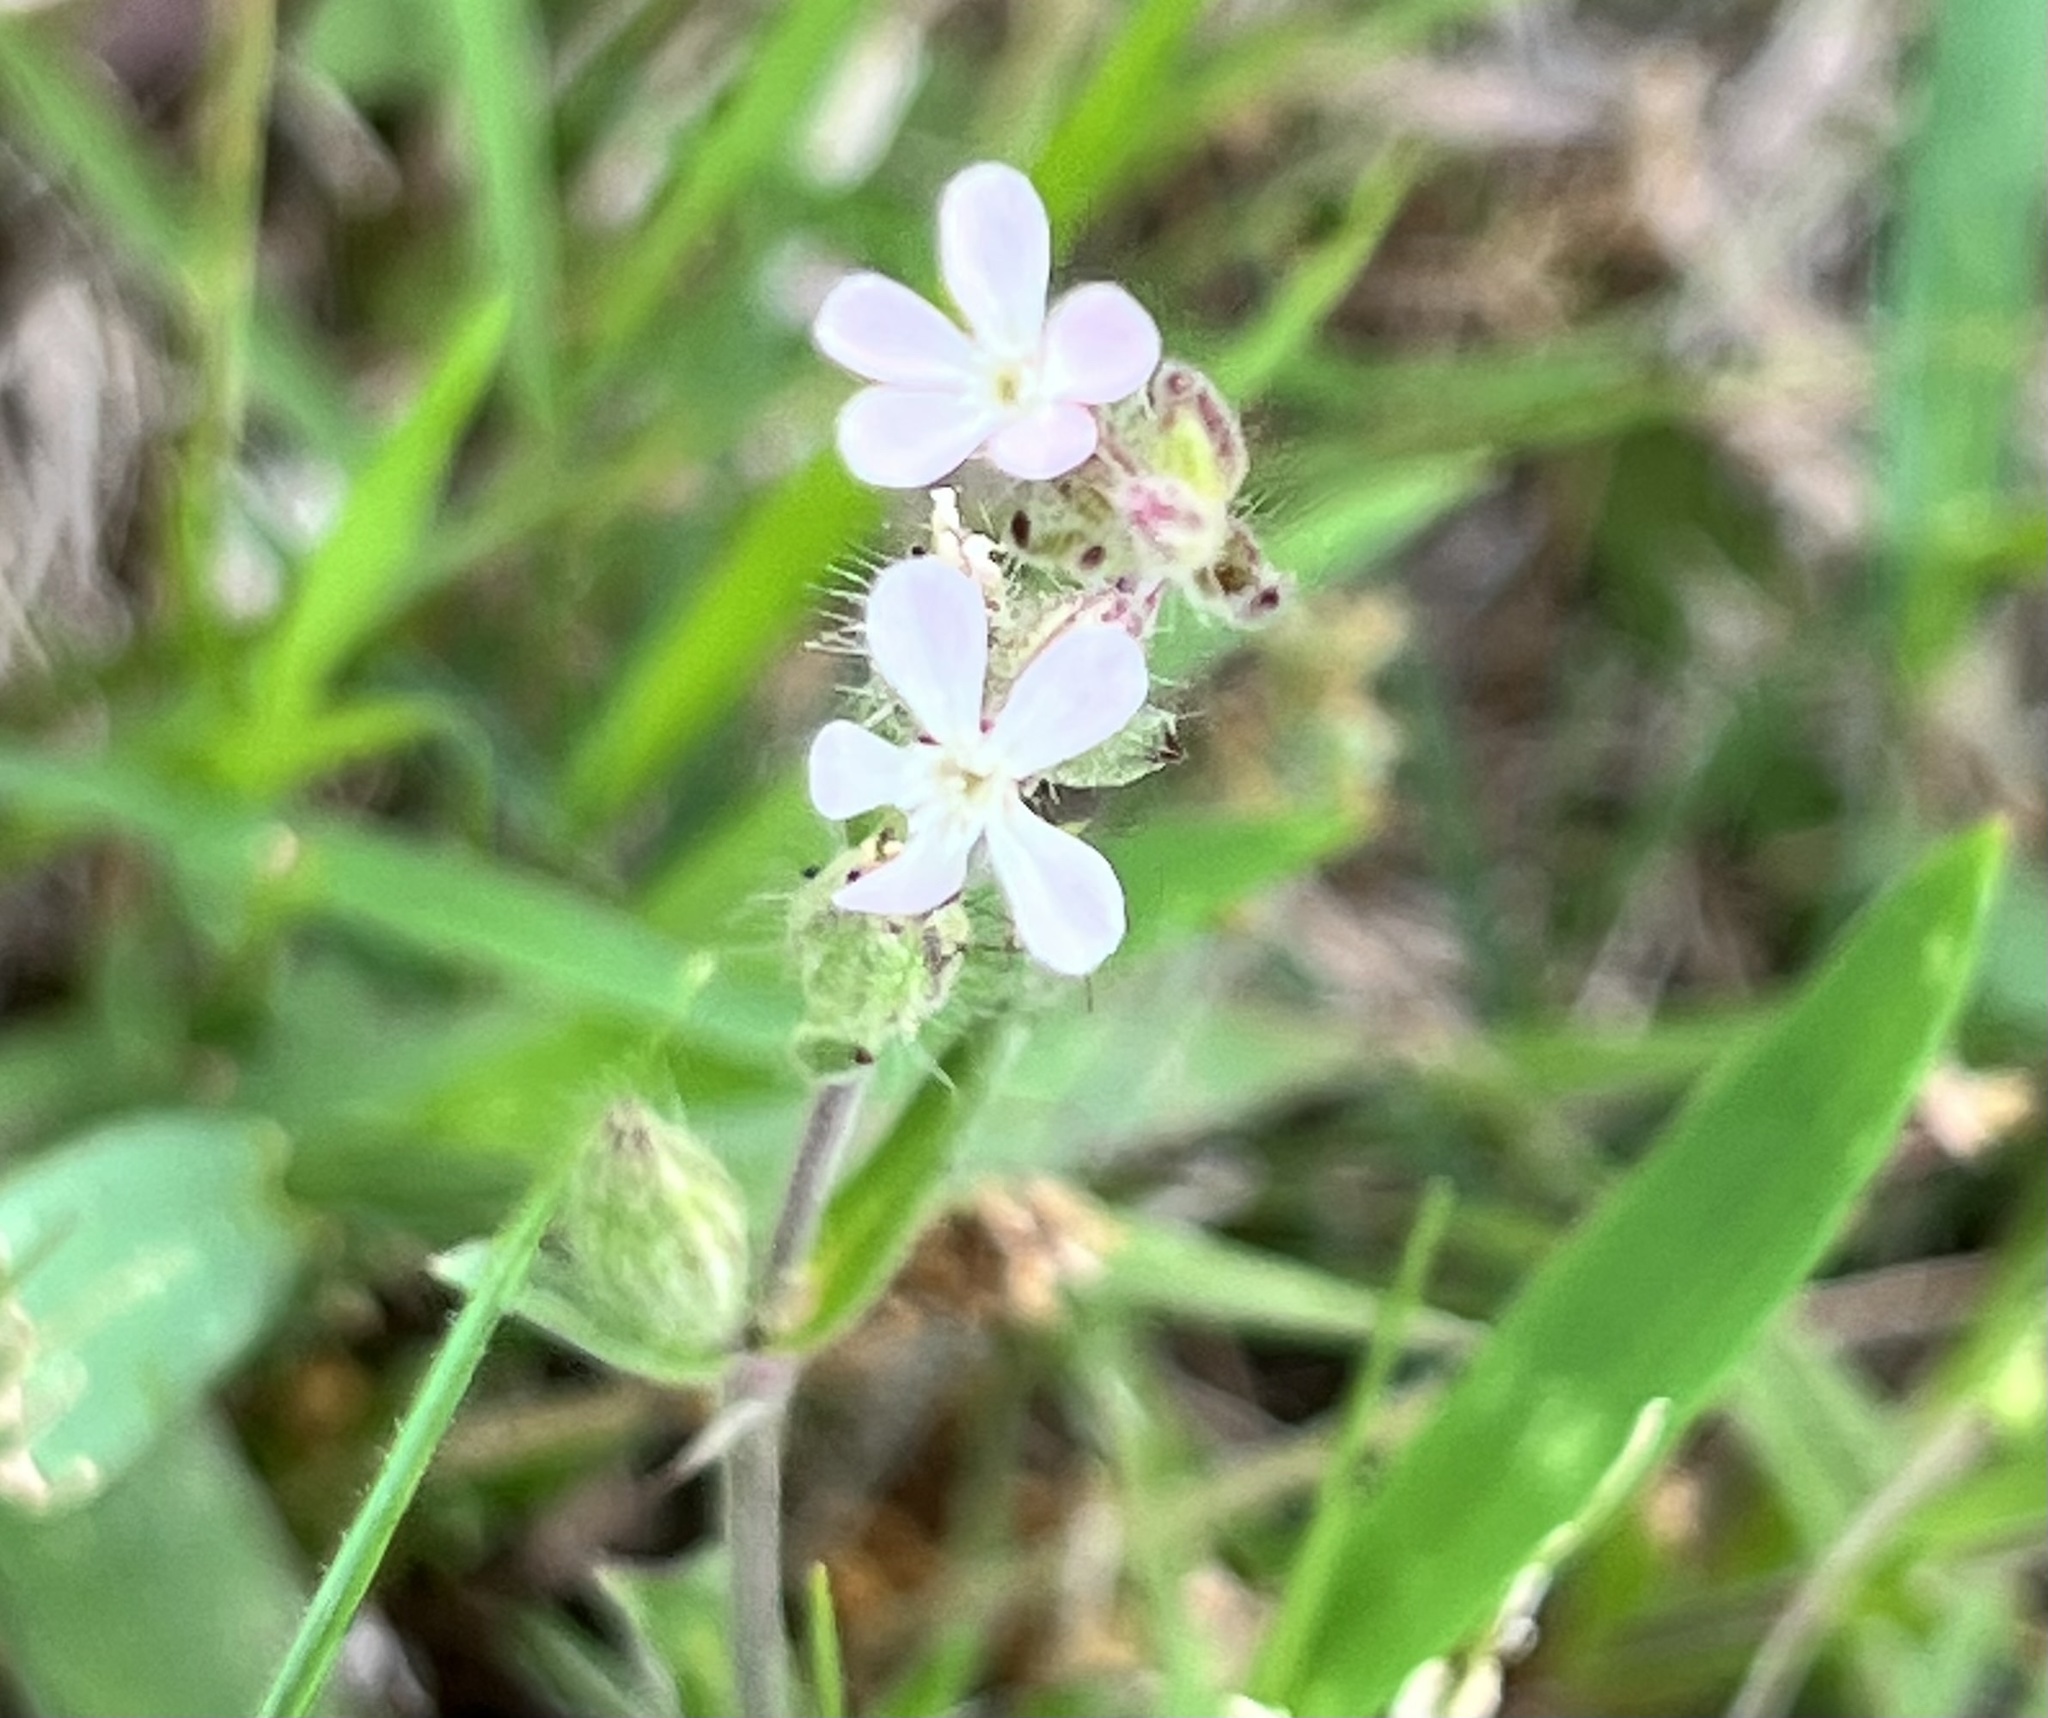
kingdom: Plantae
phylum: Tracheophyta
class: Magnoliopsida
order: Caryophyllales
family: Caryophyllaceae
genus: Silene
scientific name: Silene gallica
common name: Small-flowered catchfly
